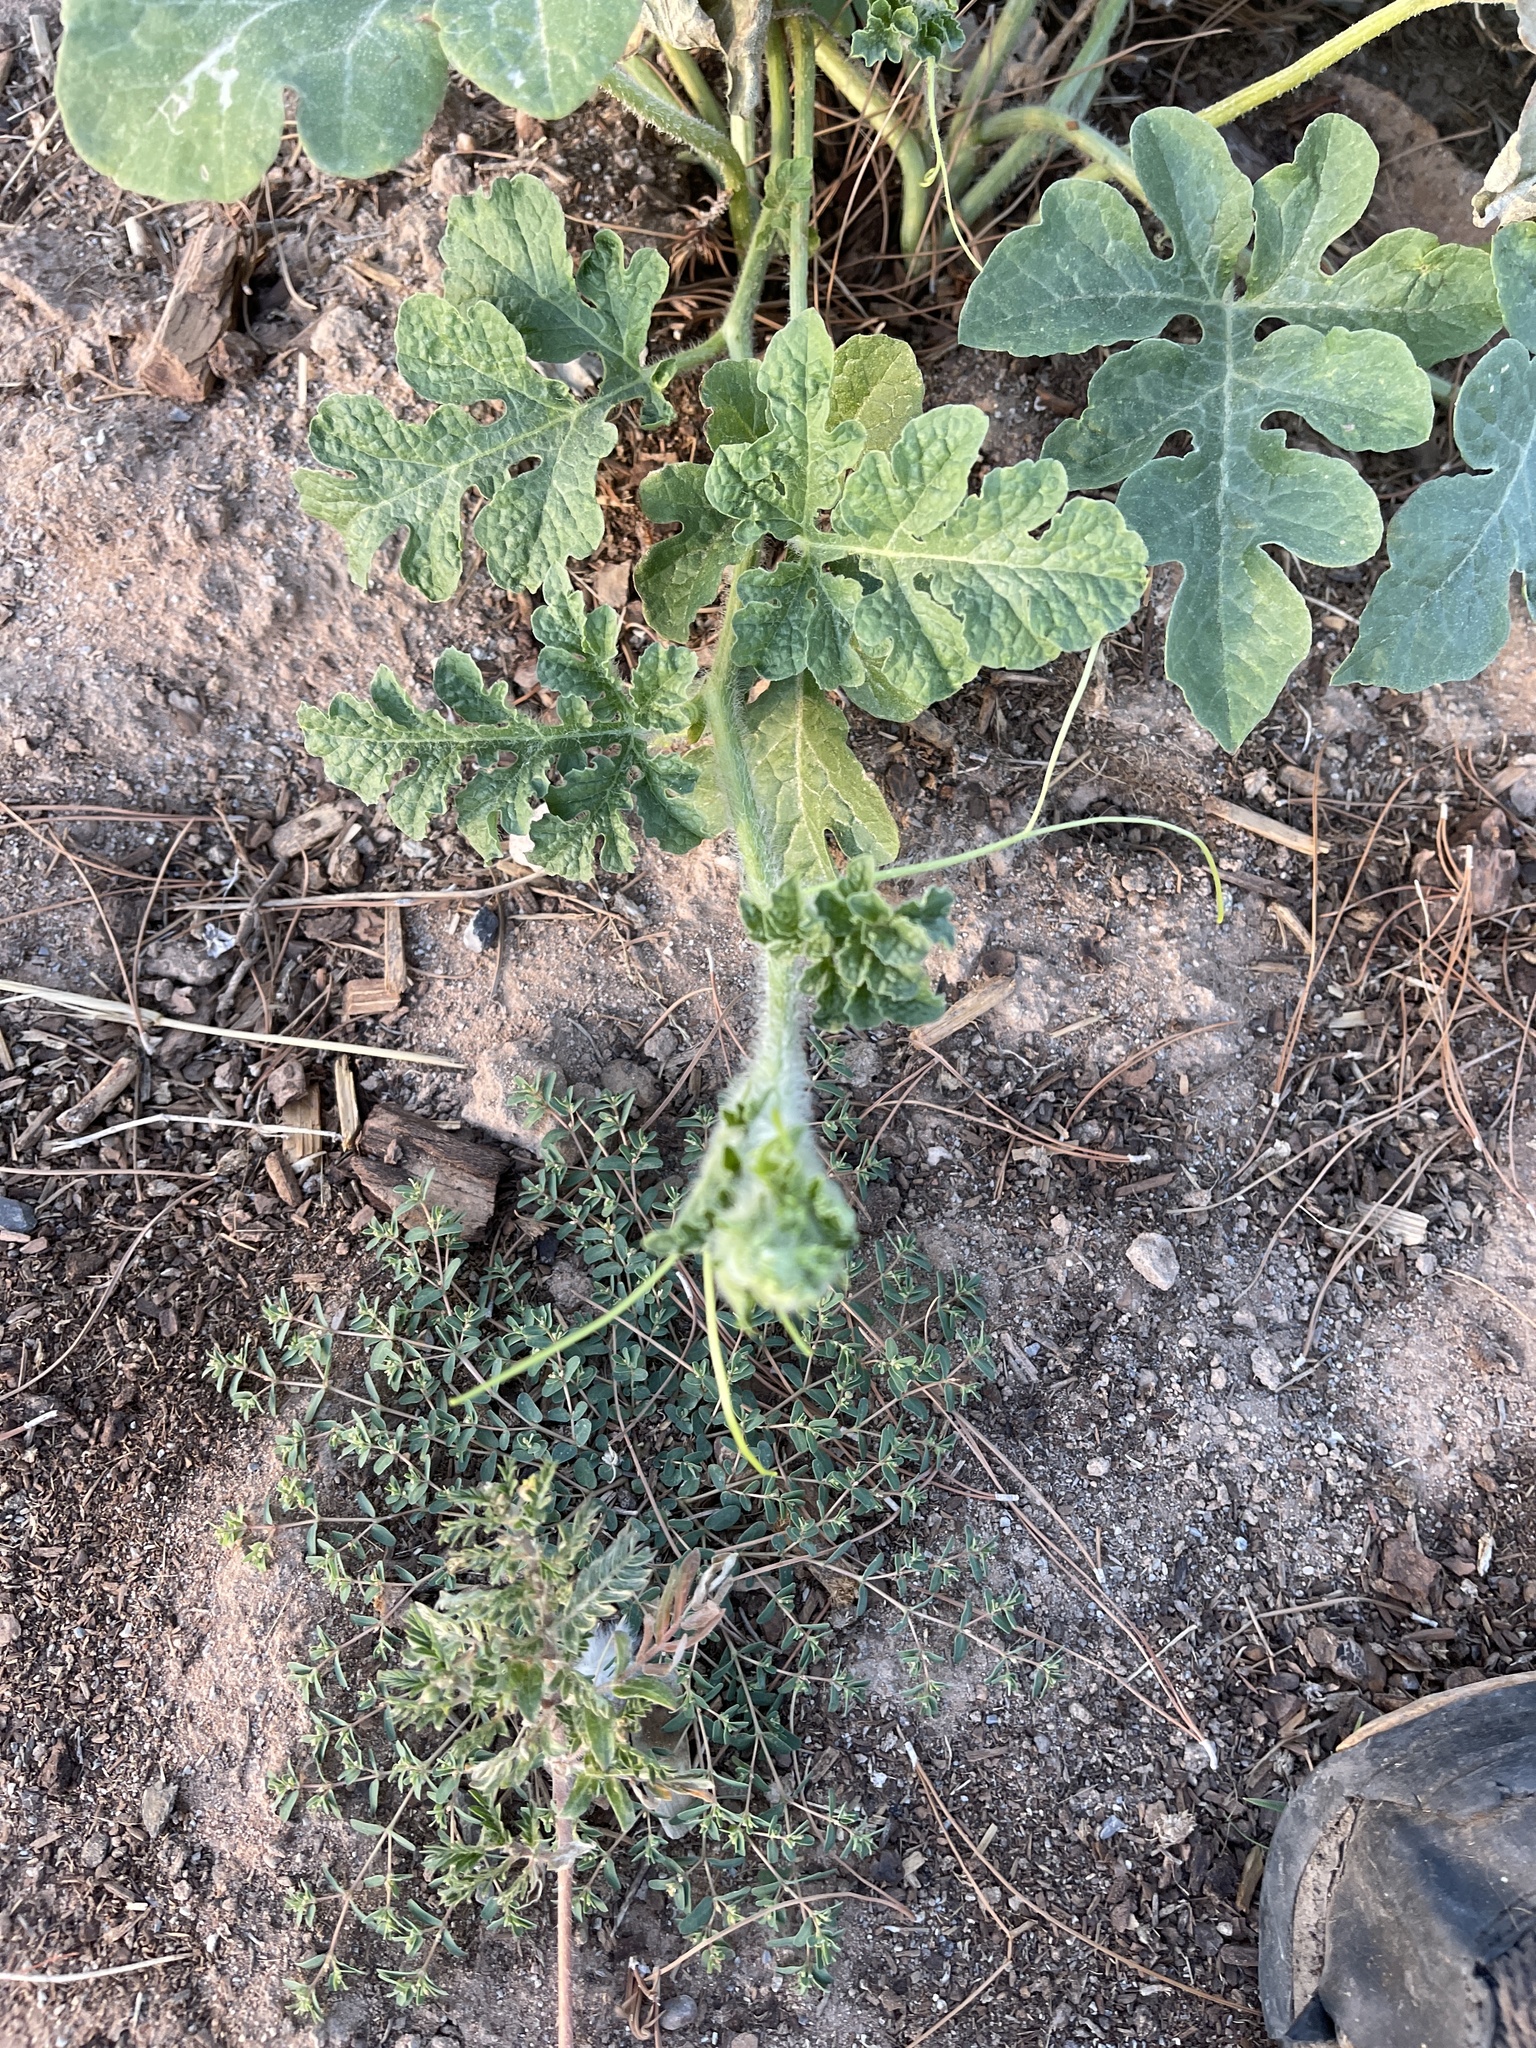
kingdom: Plantae
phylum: Tracheophyta
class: Magnoliopsida
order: Cucurbitales
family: Cucurbitaceae
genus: Citrullus
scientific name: Citrullus lanatus
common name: Watermelon
